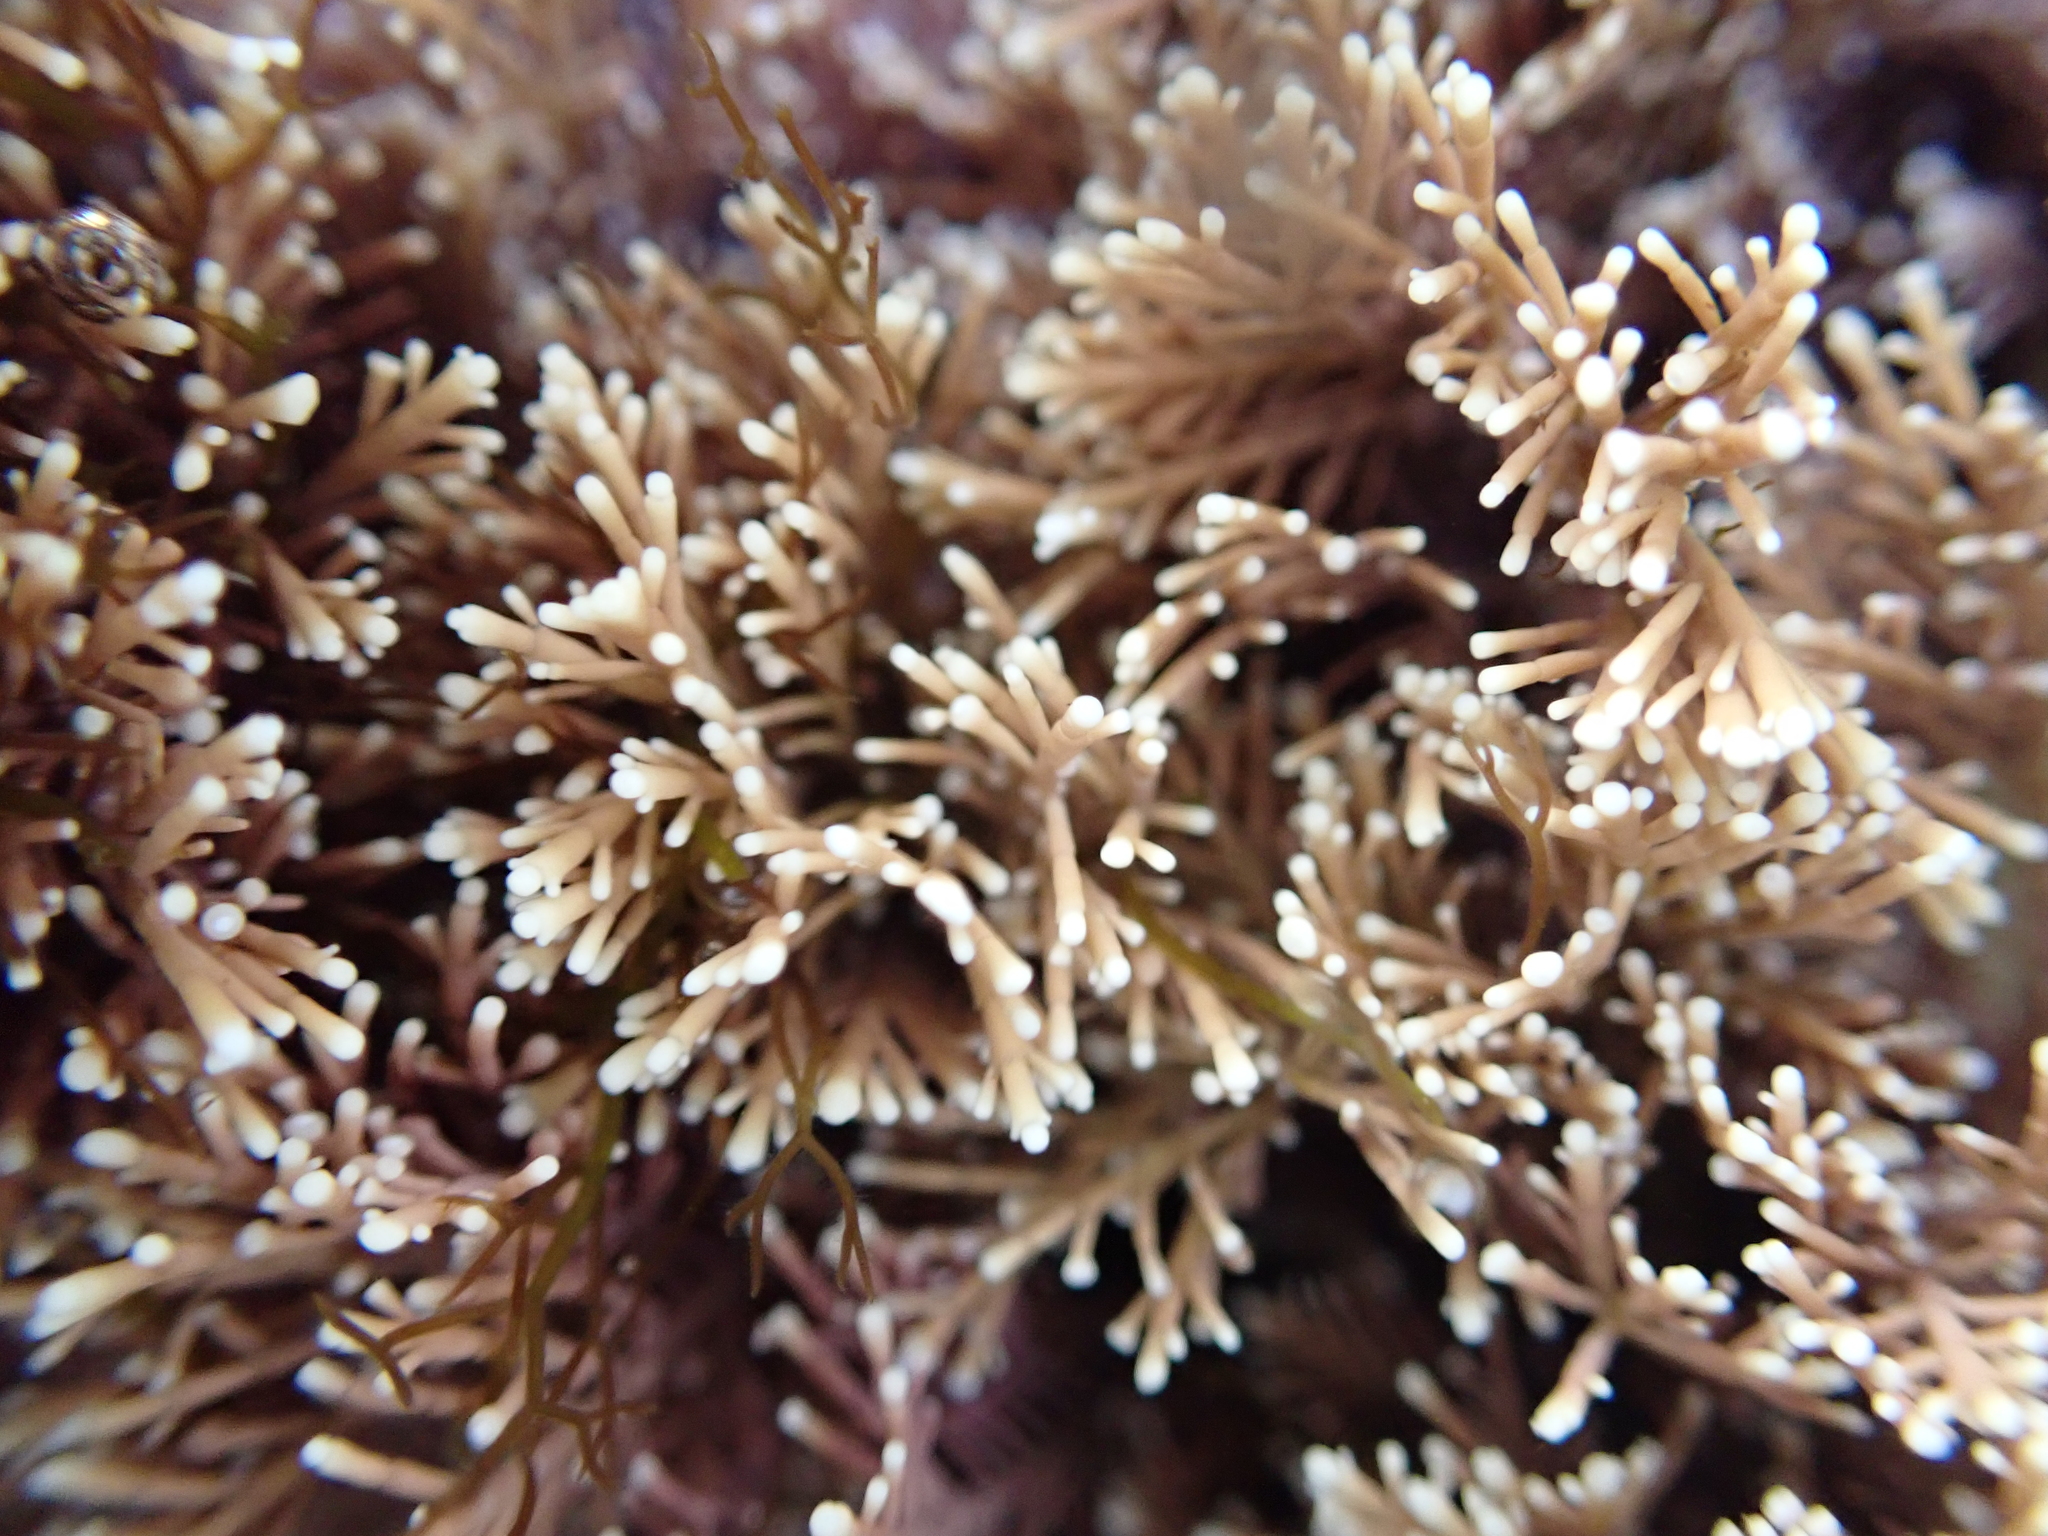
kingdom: Plantae
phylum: Rhodophyta
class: Florideophyceae
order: Corallinales
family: Corallinaceae
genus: Corallina
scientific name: Corallina officinalis
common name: Coral weed
